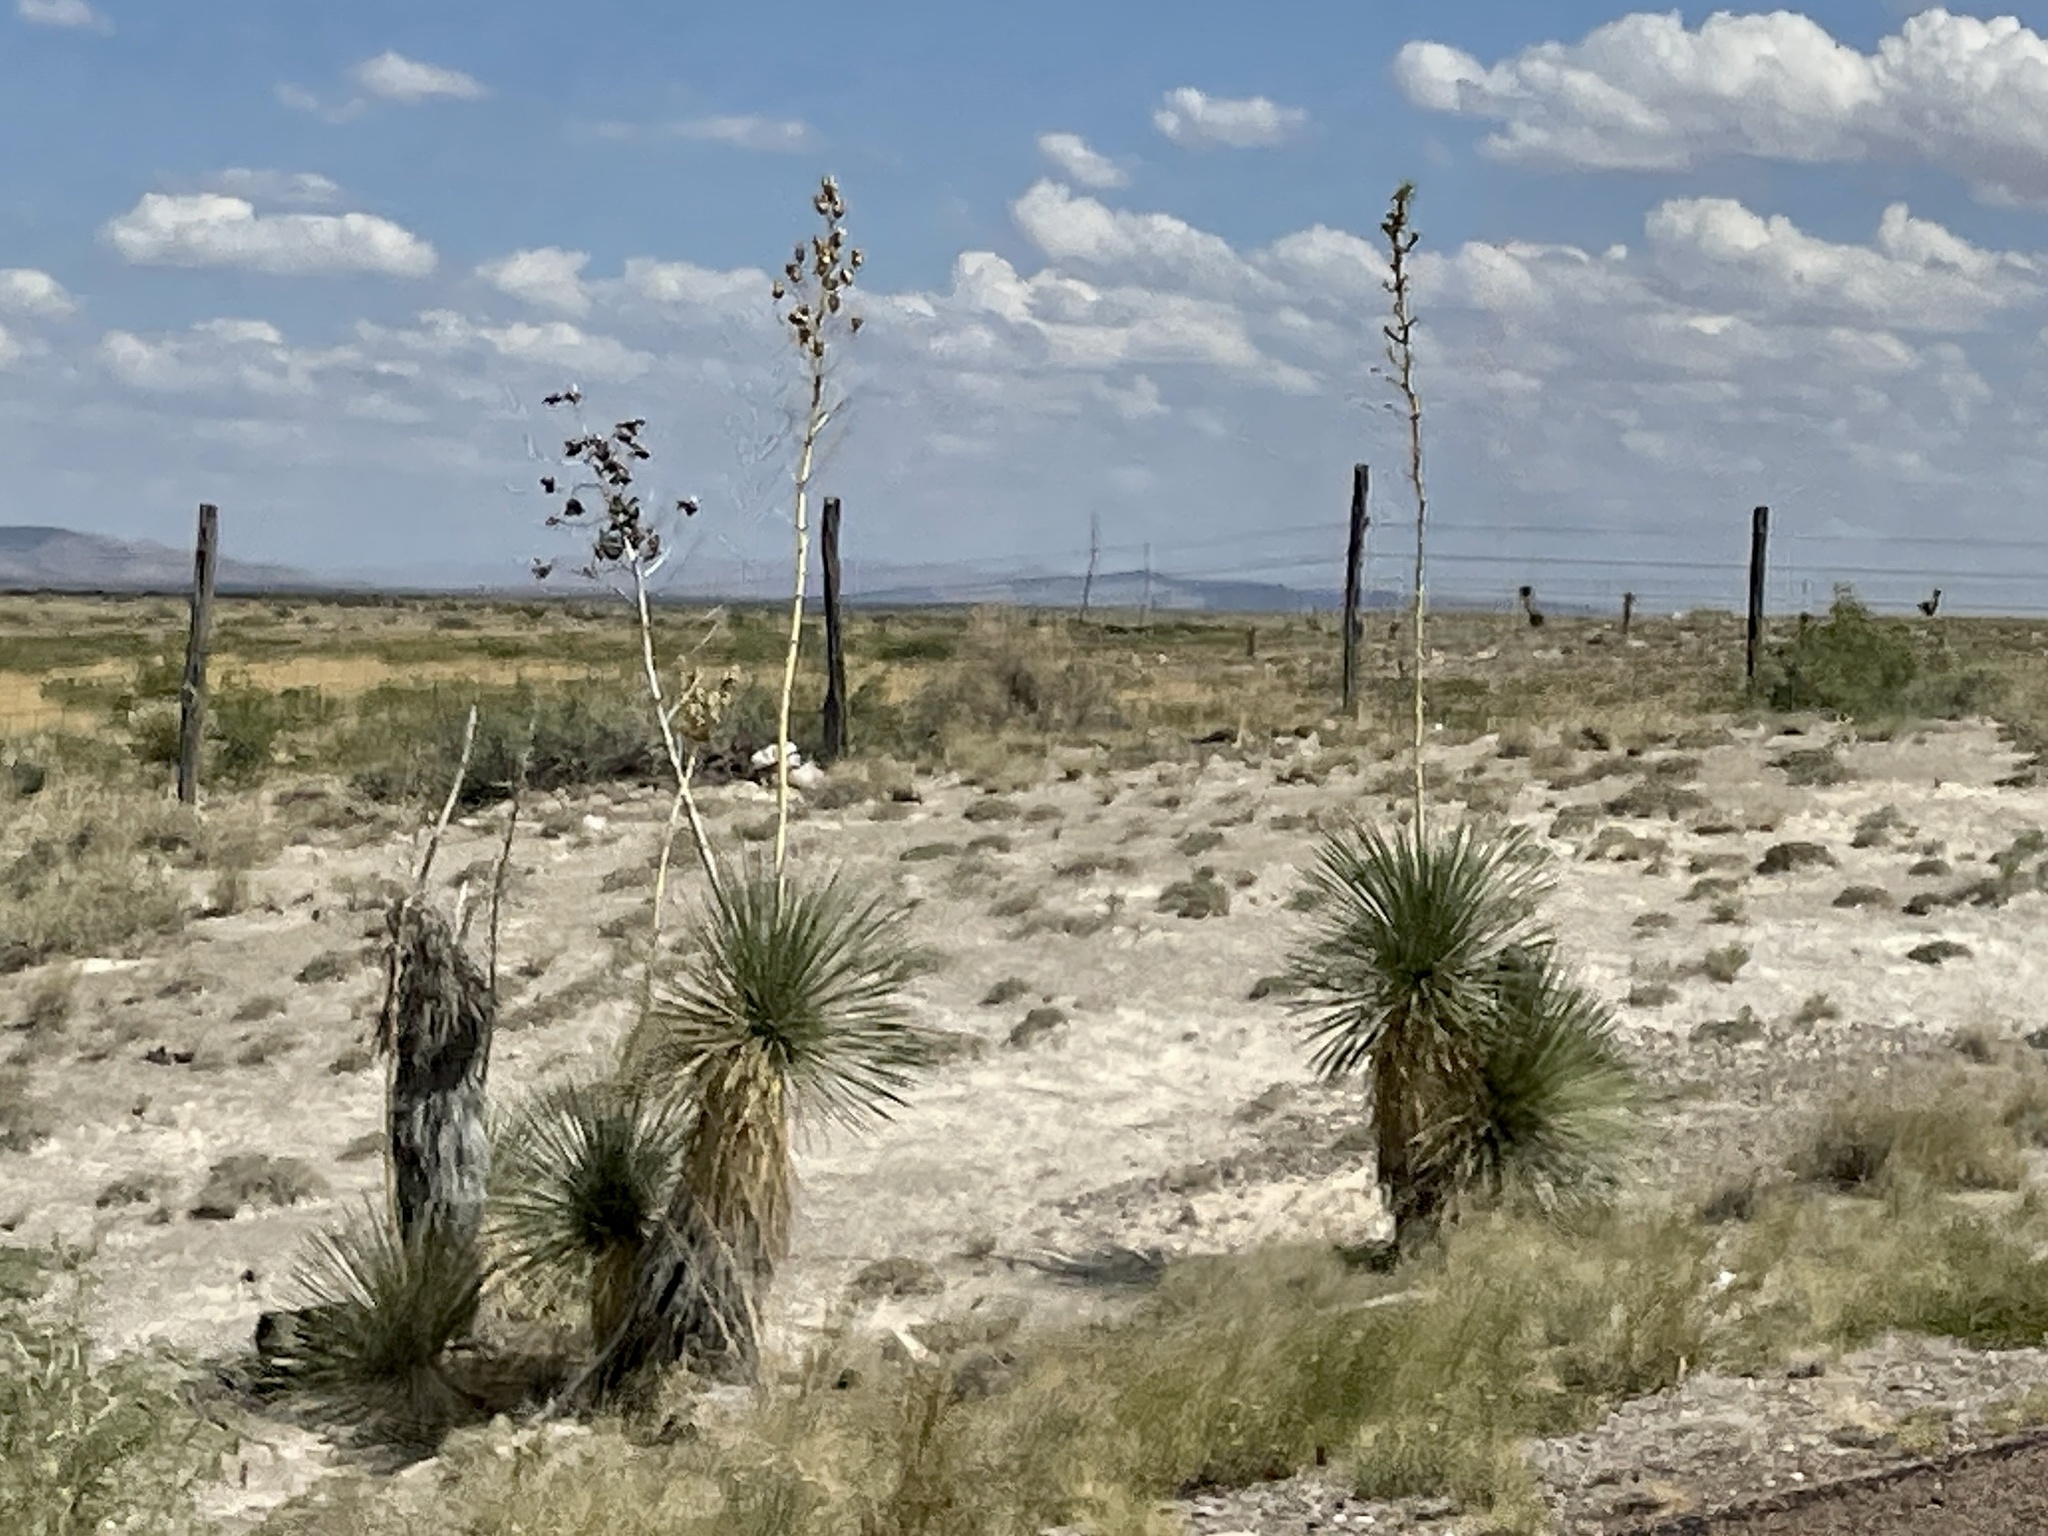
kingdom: Plantae
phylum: Tracheophyta
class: Liliopsida
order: Asparagales
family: Asparagaceae
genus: Yucca
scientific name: Yucca elata
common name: Palmella
